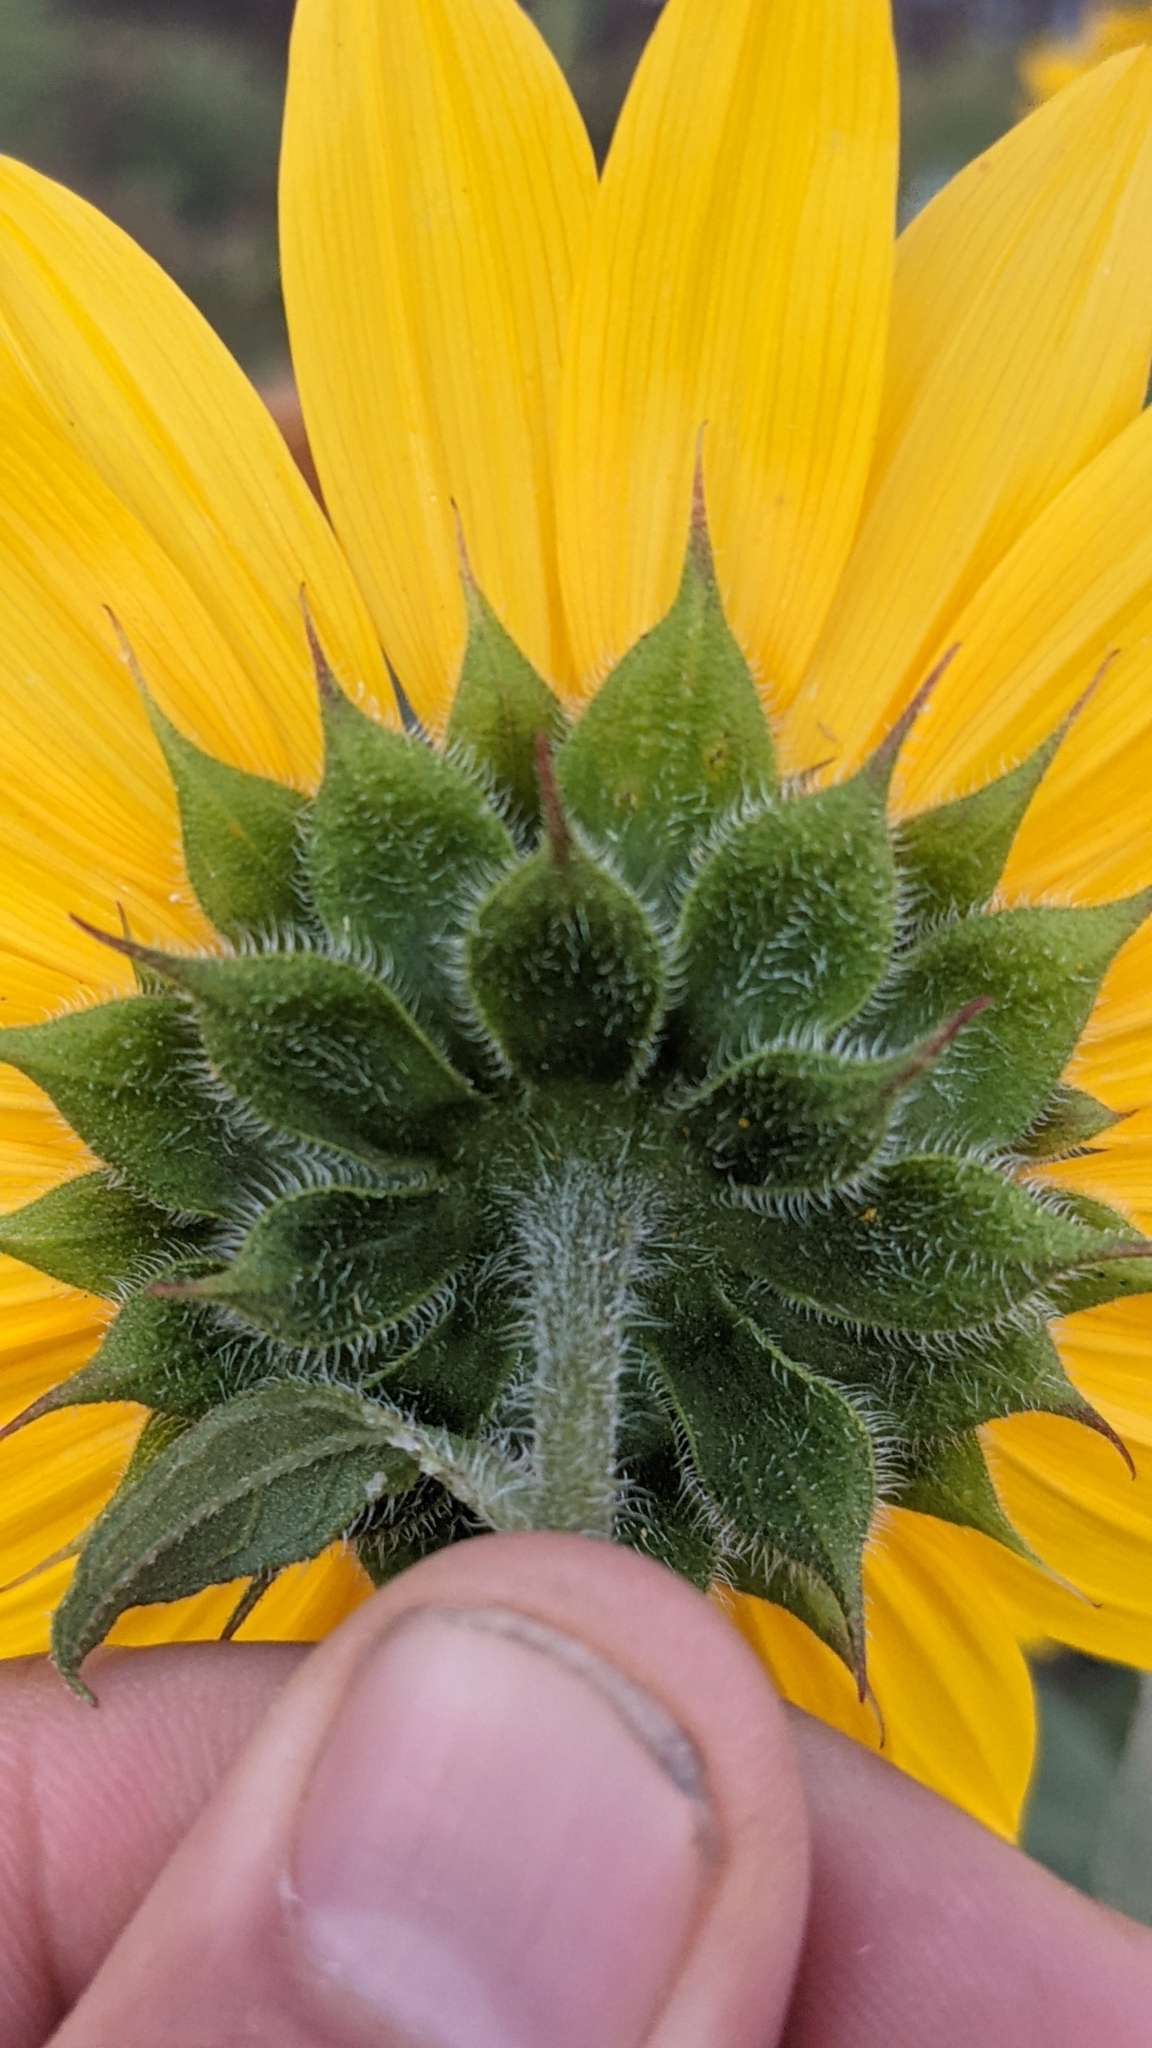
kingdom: Plantae
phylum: Tracheophyta
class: Magnoliopsida
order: Asterales
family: Asteraceae
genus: Helianthus
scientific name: Helianthus annuus
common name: Sunflower
